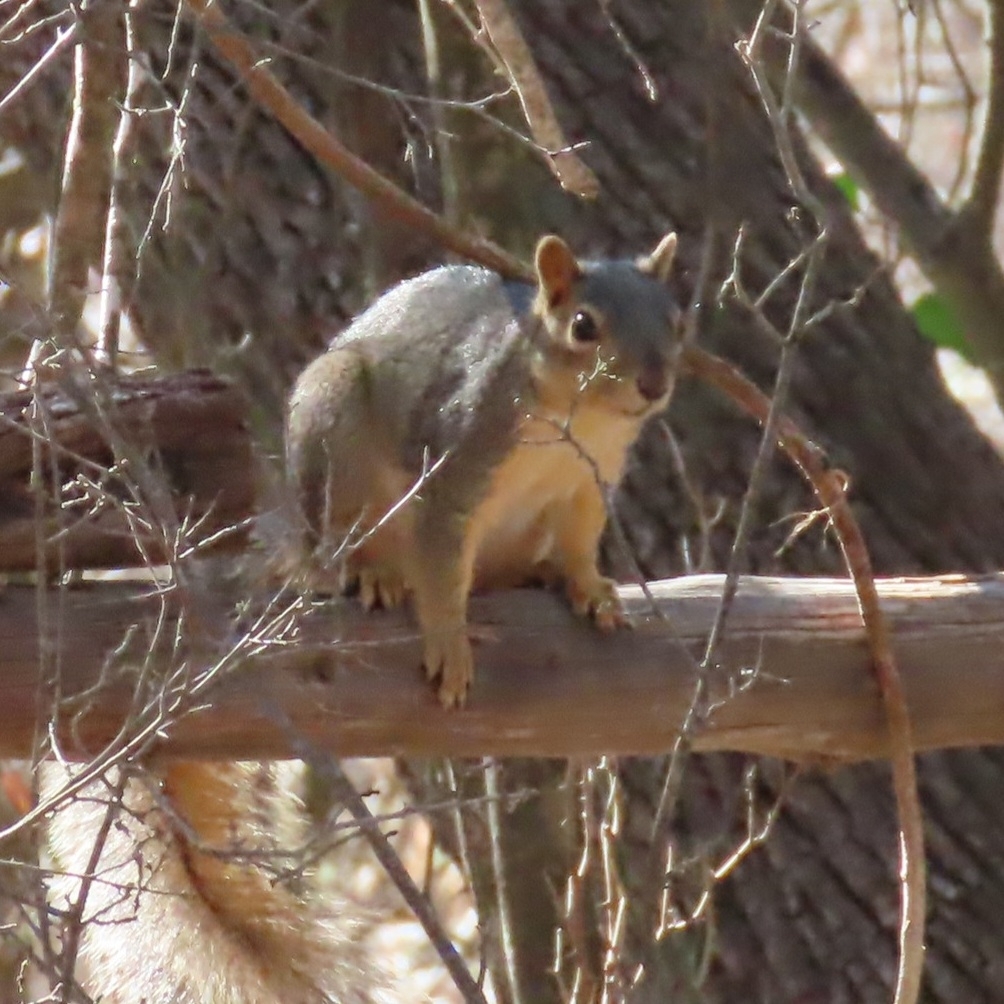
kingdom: Animalia
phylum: Chordata
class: Mammalia
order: Rodentia
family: Sciuridae
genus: Sciurus
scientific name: Sciurus niger
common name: Fox squirrel
